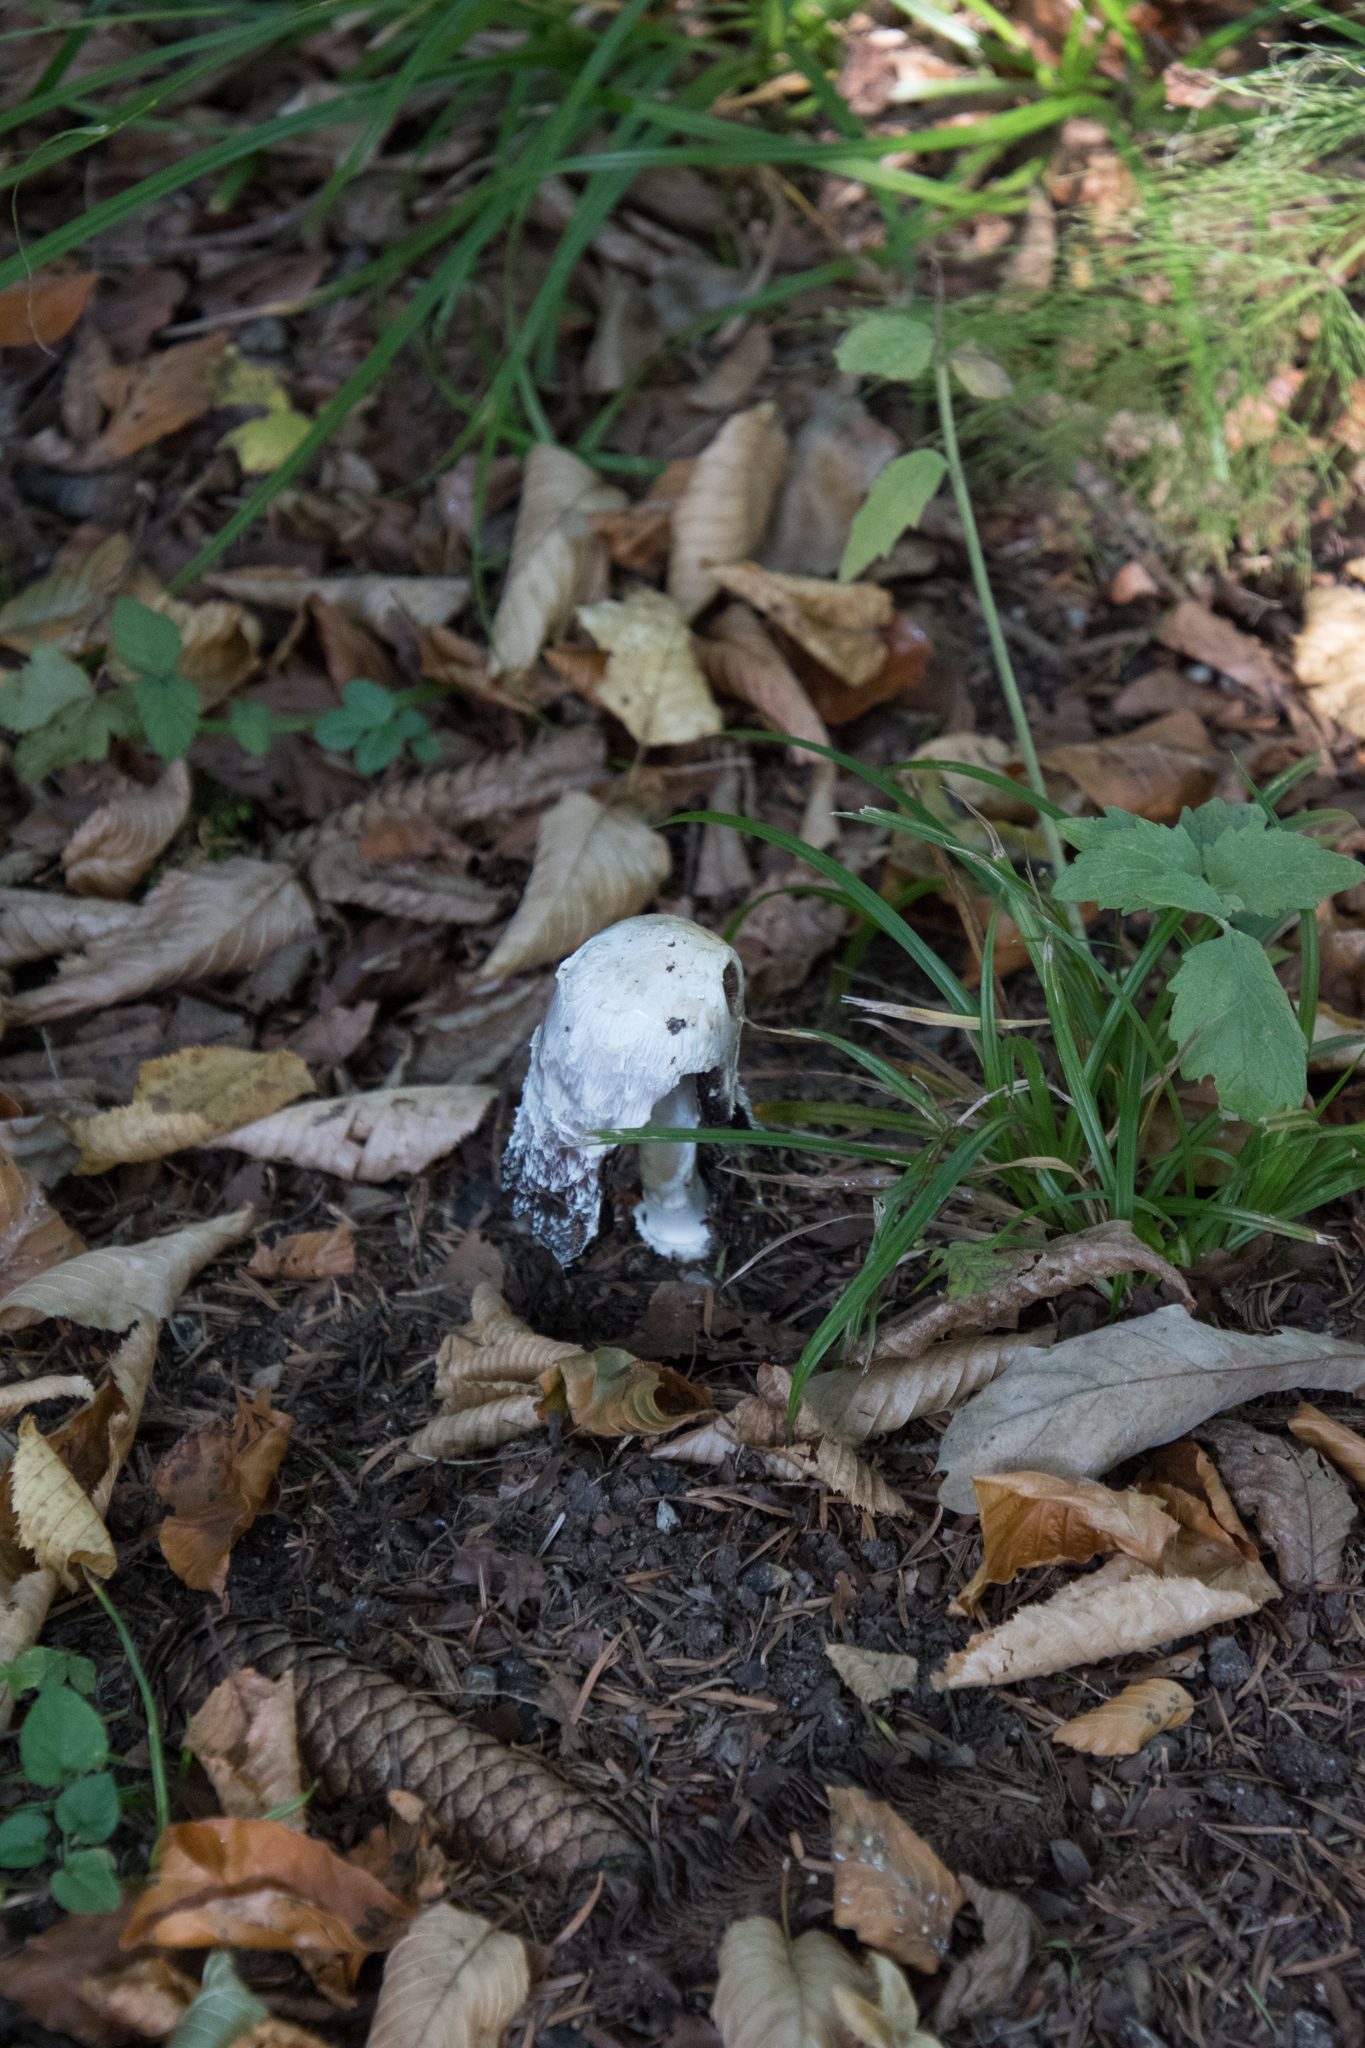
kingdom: Fungi
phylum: Basidiomycota
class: Agaricomycetes
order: Agaricales
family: Agaricaceae
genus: Coprinus
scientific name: Coprinus comatus
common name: Lawyer's wig
